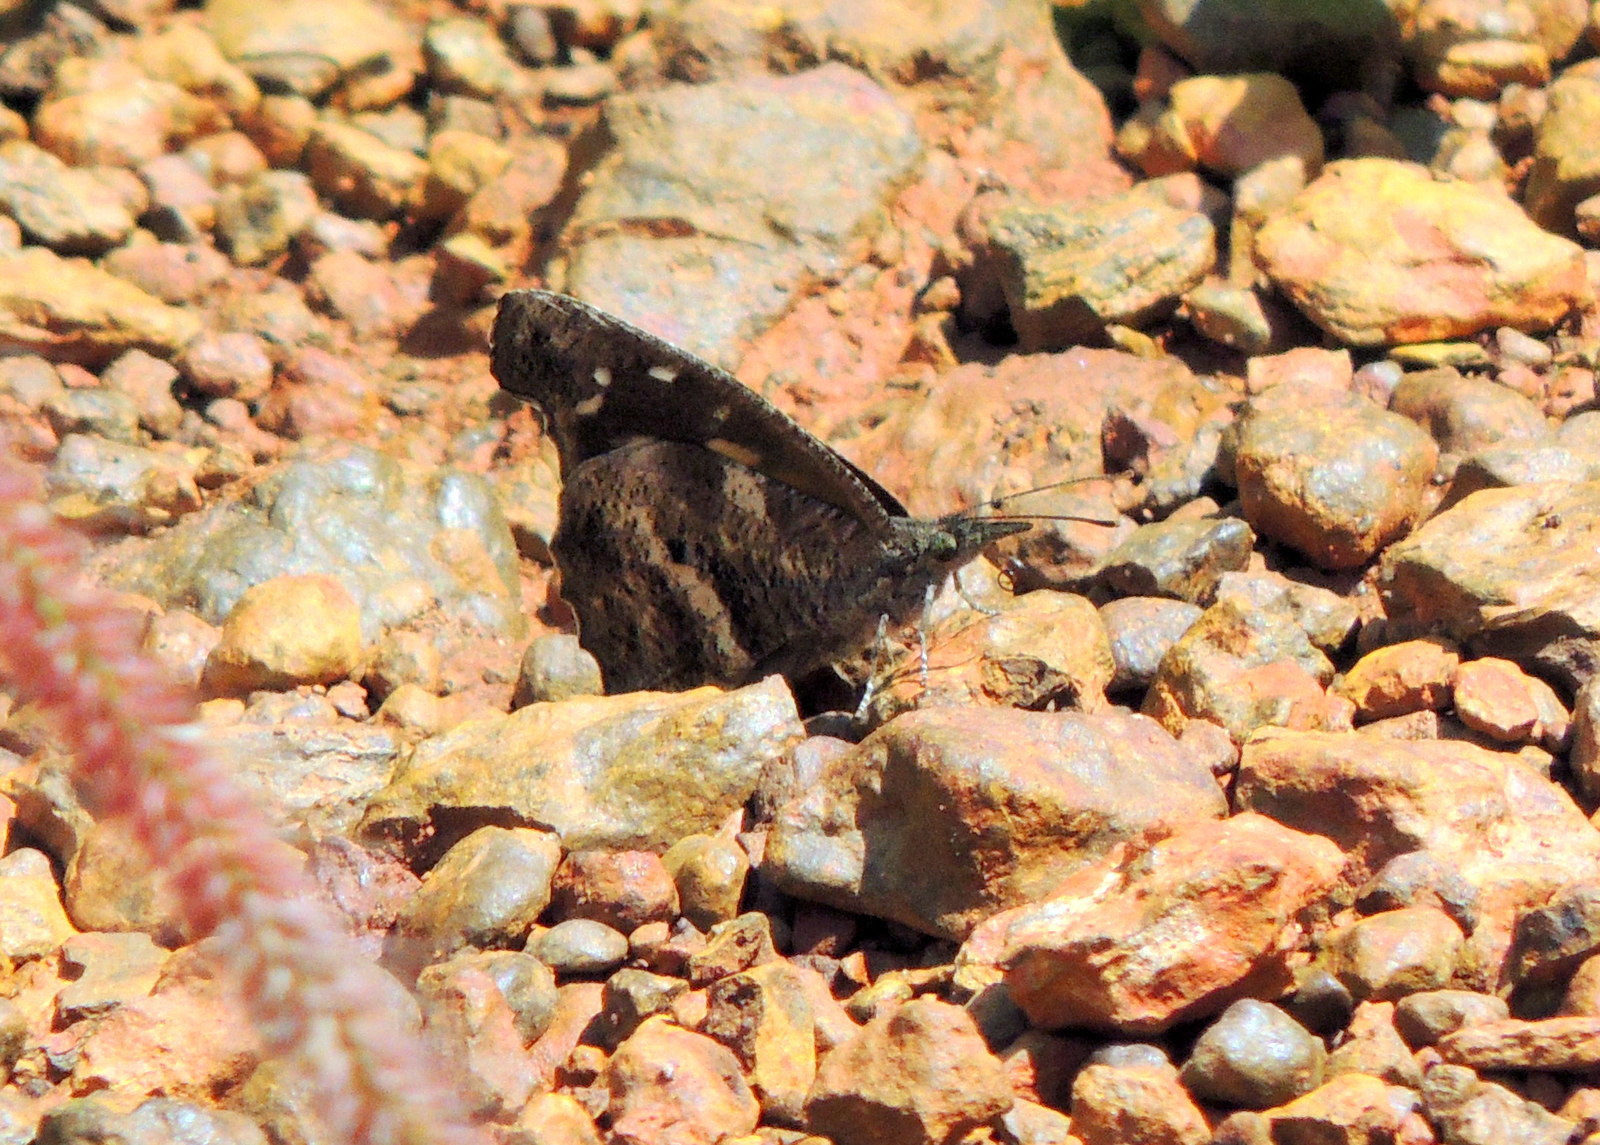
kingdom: Animalia
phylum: Arthropoda
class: Insecta
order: Lepidoptera
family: Nymphalidae
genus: Libythea
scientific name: Libythea labdaca
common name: Northern african snout
